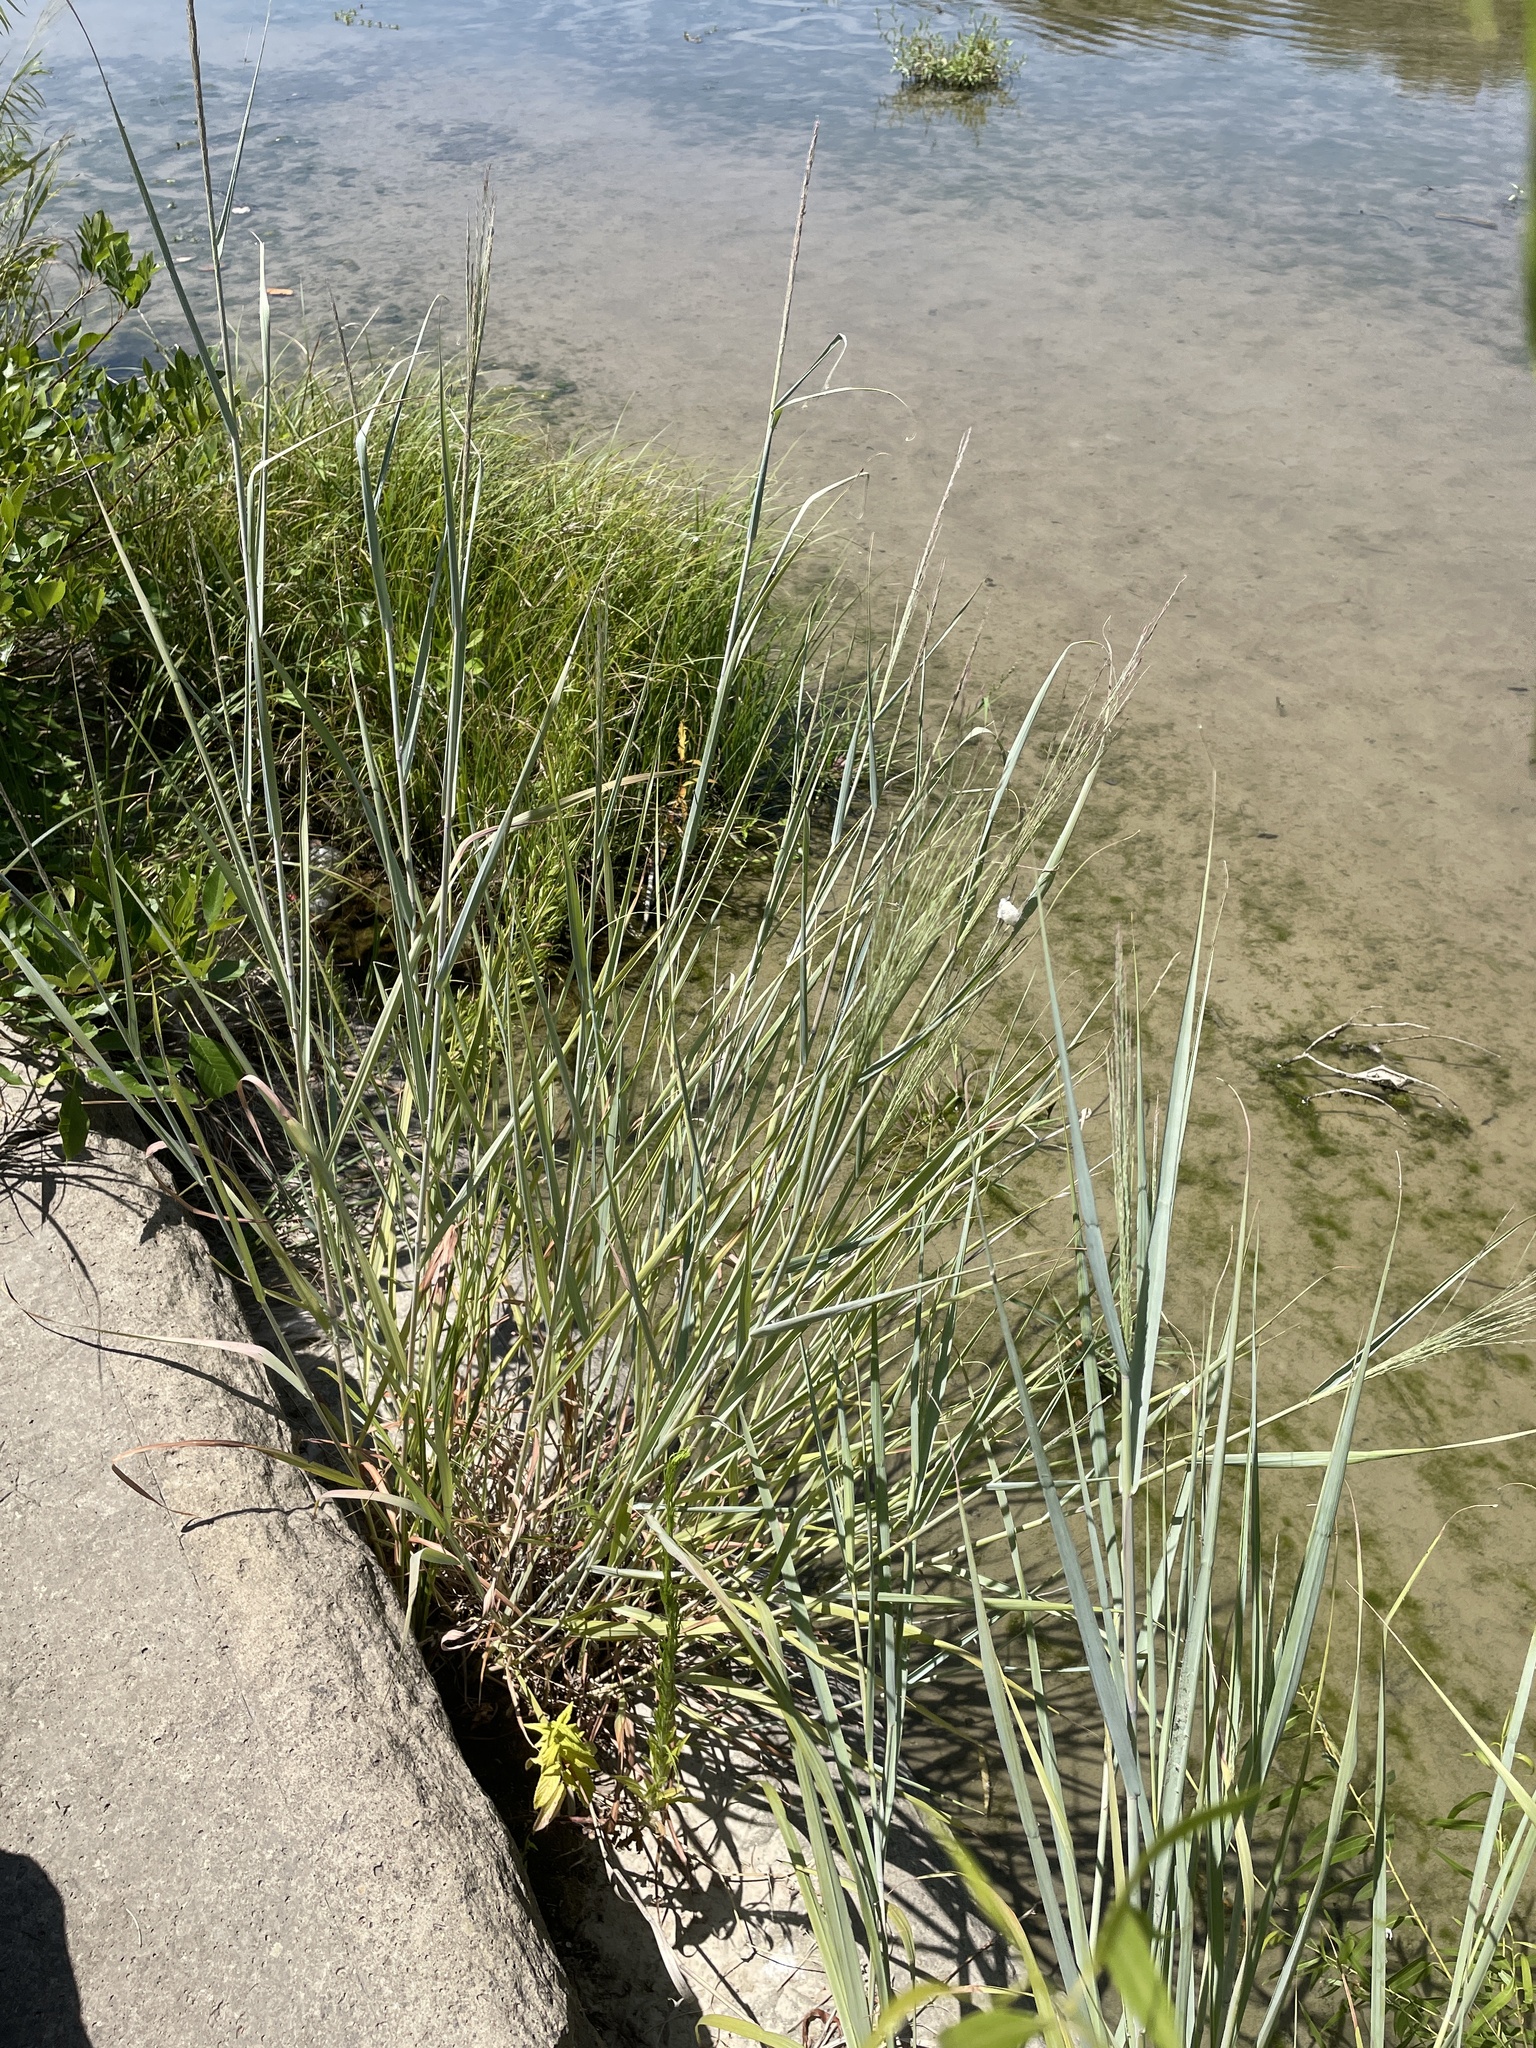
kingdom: Plantae
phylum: Tracheophyta
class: Liliopsida
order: Poales
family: Poaceae
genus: Panicum
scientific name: Panicum virgatum
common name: Switchgrass
